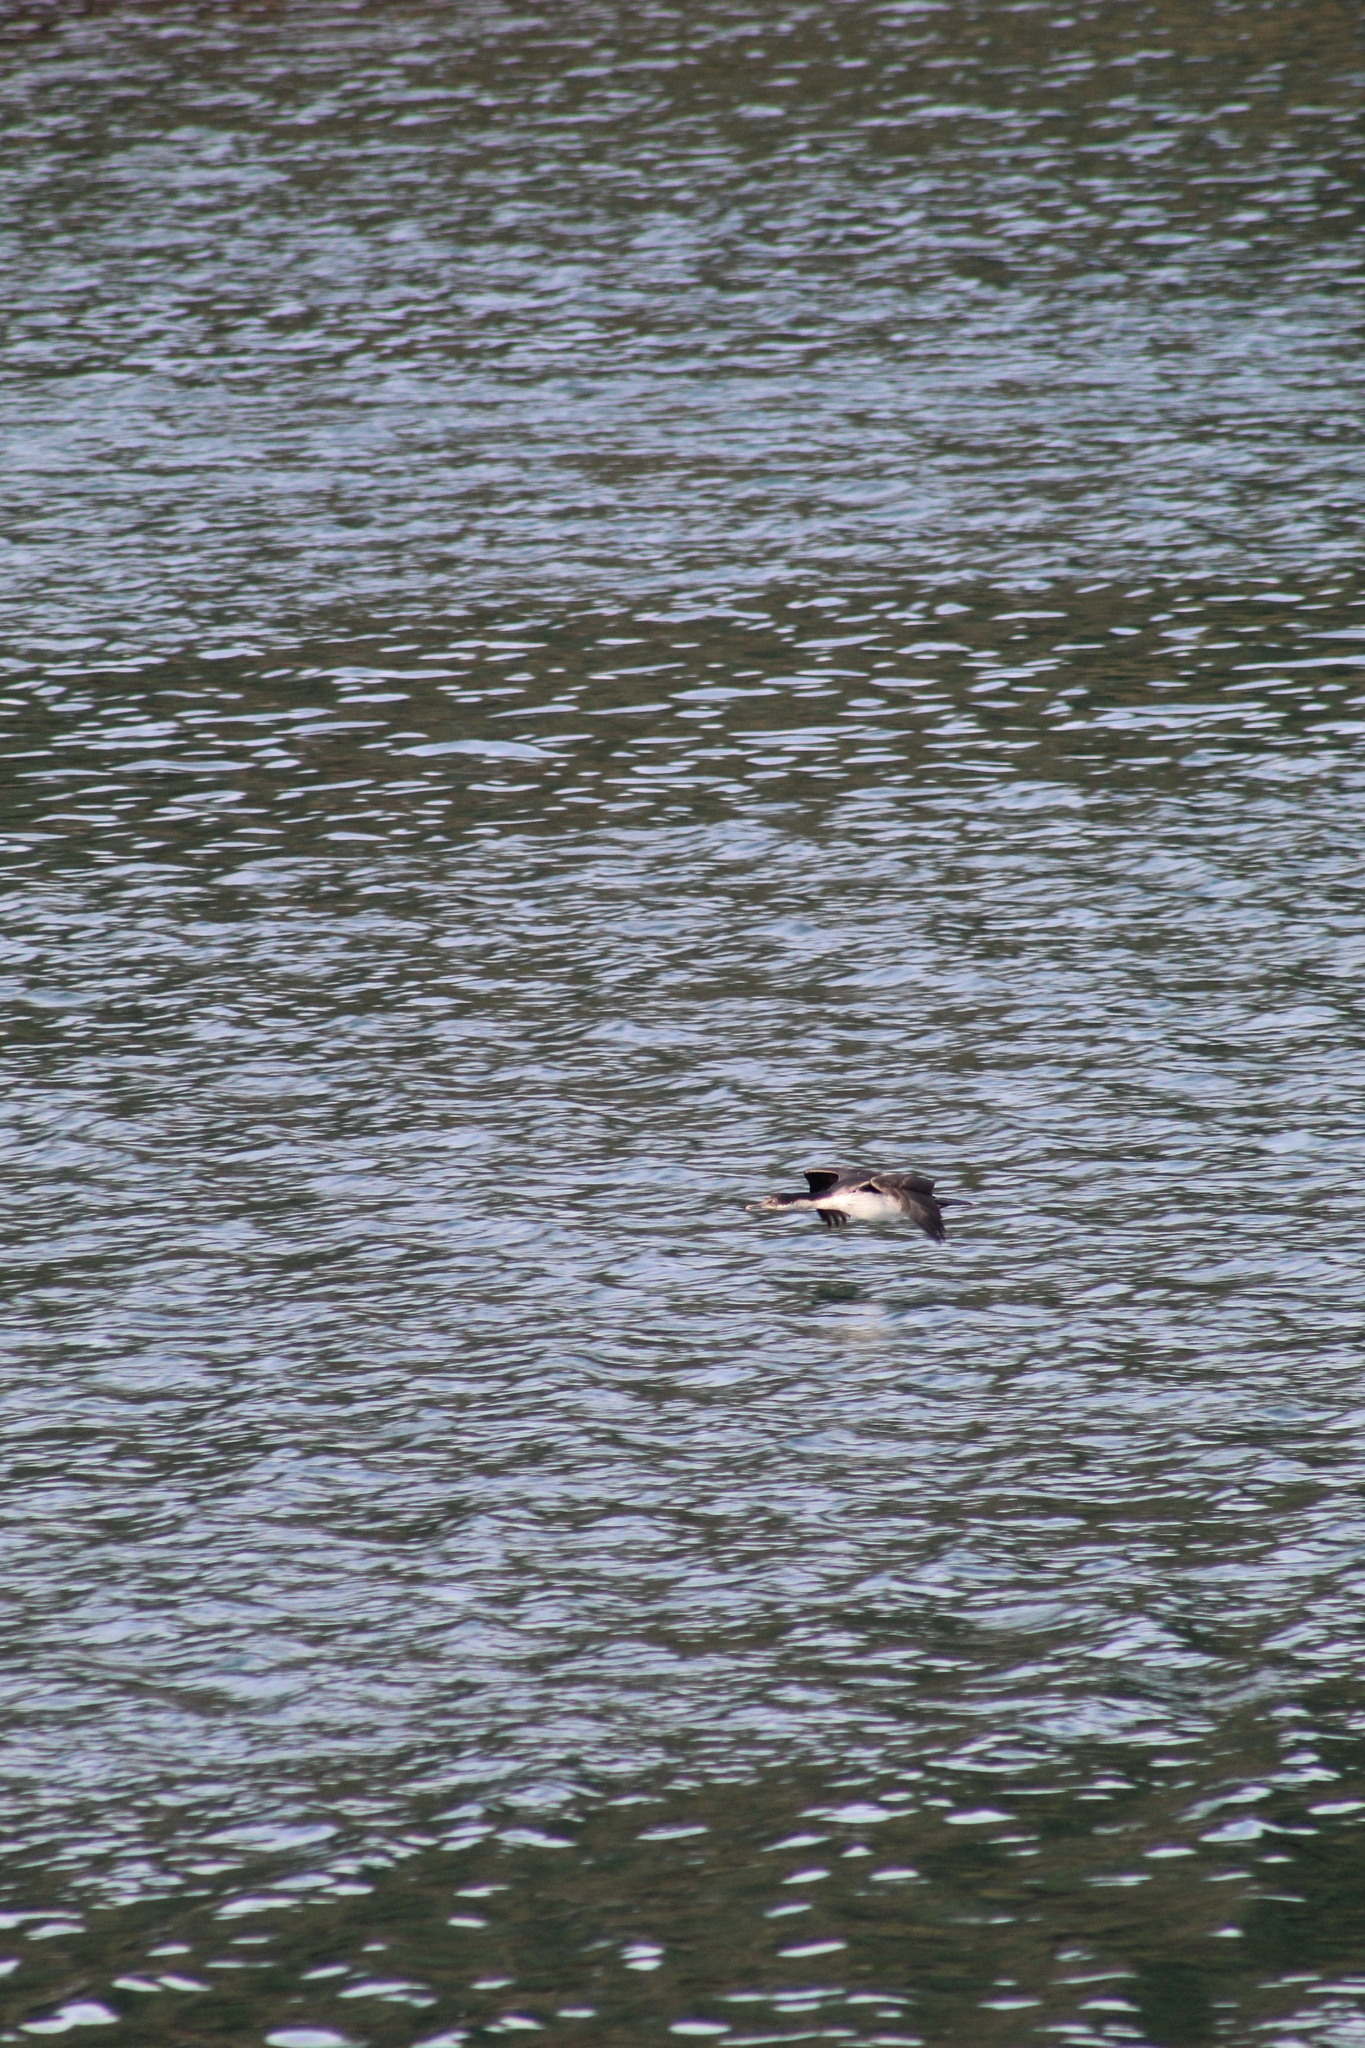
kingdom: Animalia
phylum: Chordata
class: Aves
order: Suliformes
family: Phalacrocoracidae
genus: Leucocarbo
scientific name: Leucocarbo atriceps
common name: Imperial shag
